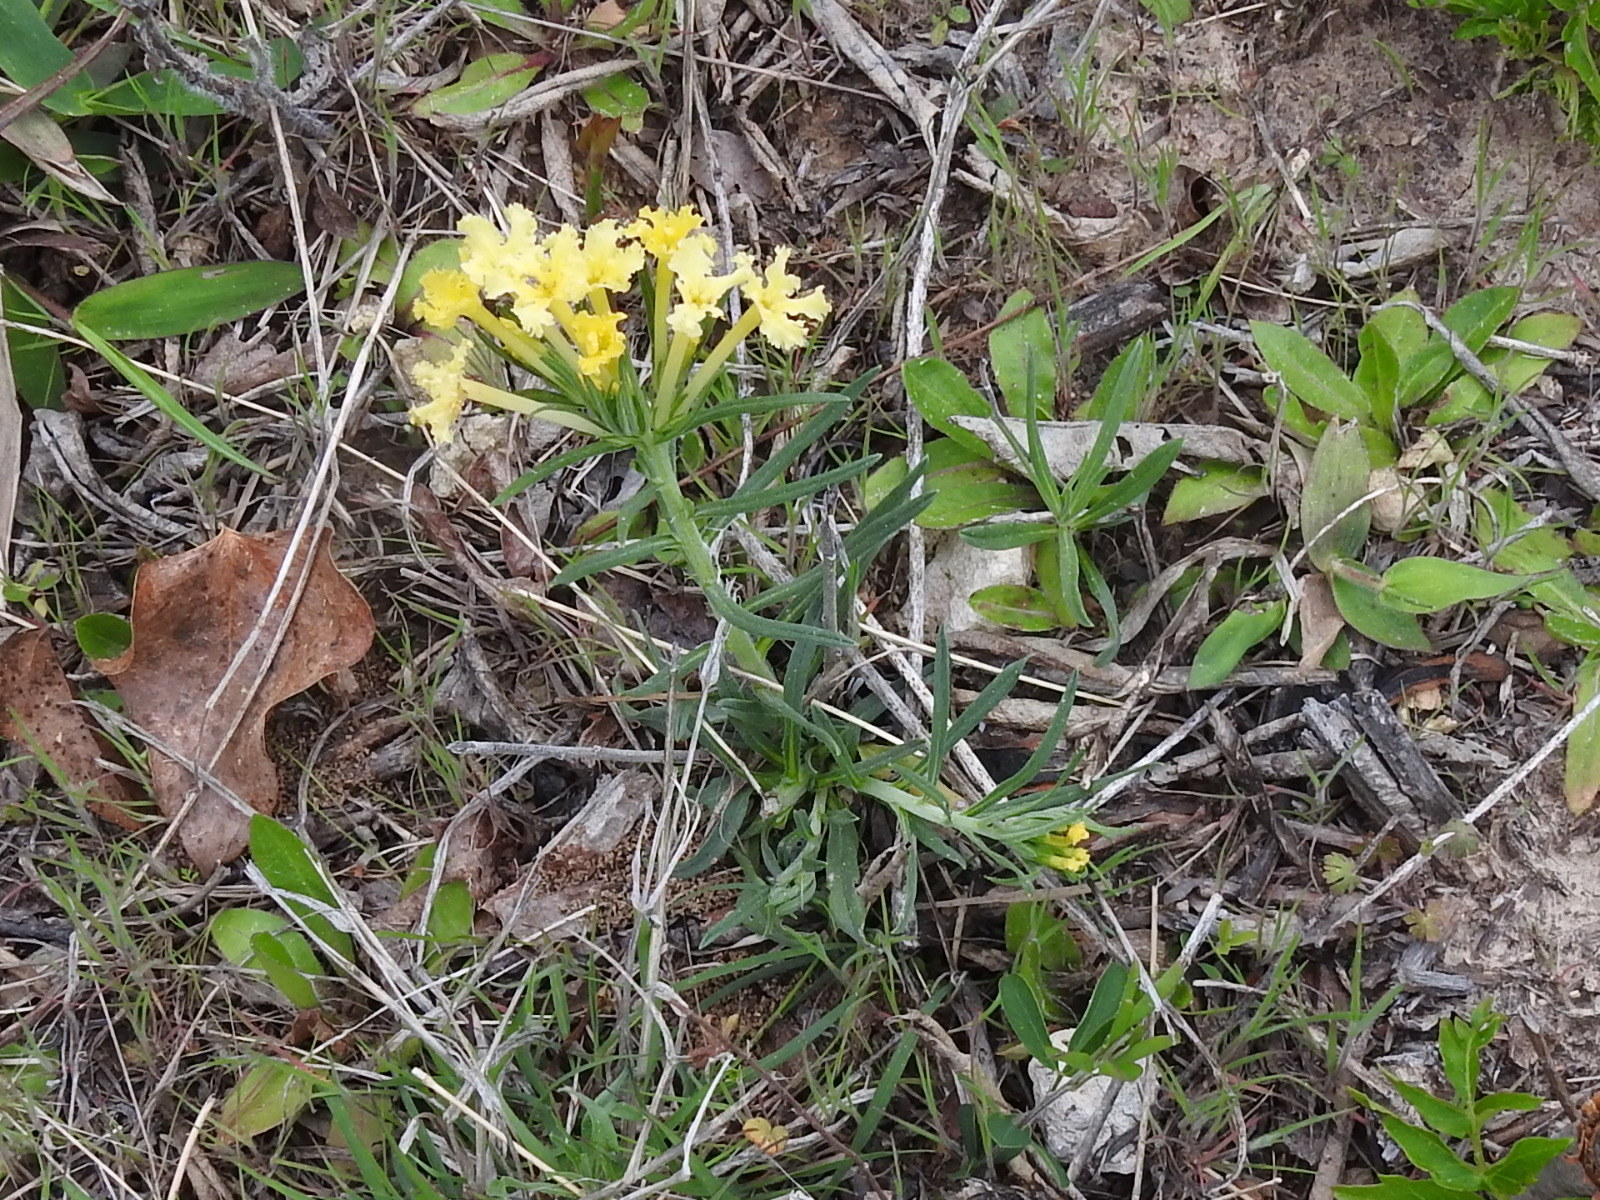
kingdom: Plantae
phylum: Tracheophyta
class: Magnoliopsida
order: Boraginales
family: Boraginaceae
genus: Lithospermum
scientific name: Lithospermum incisum
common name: Fringed gromwell
